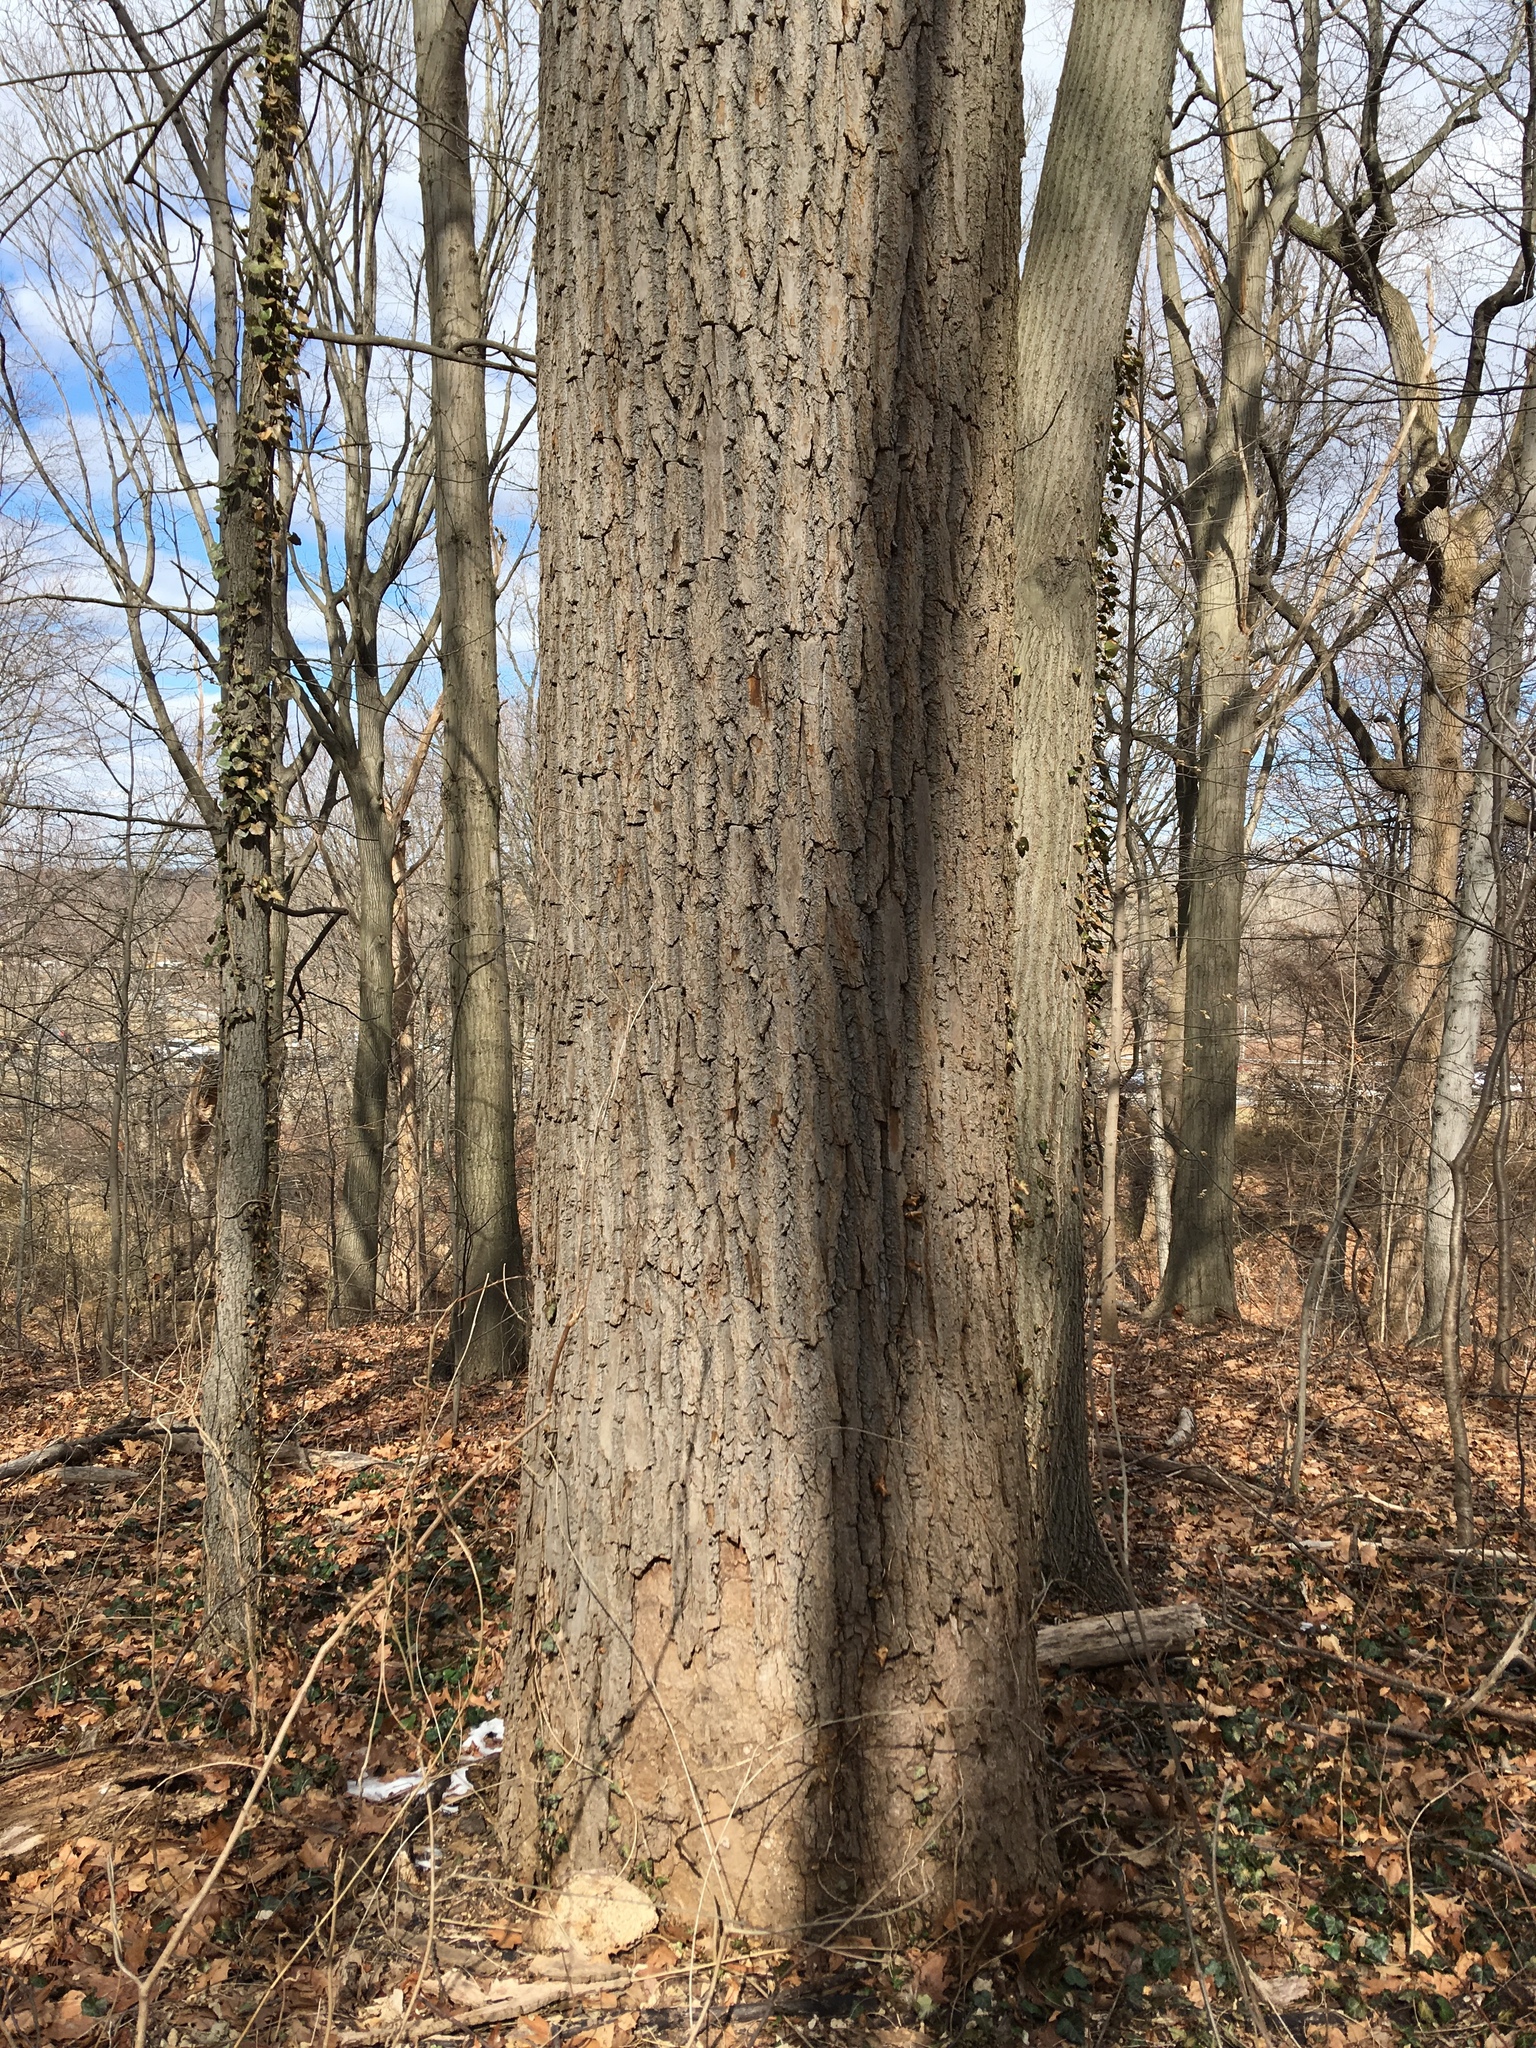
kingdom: Plantae
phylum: Tracheophyta
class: Magnoliopsida
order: Magnoliales
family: Magnoliaceae
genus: Liriodendron
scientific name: Liriodendron tulipifera
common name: Tulip tree
